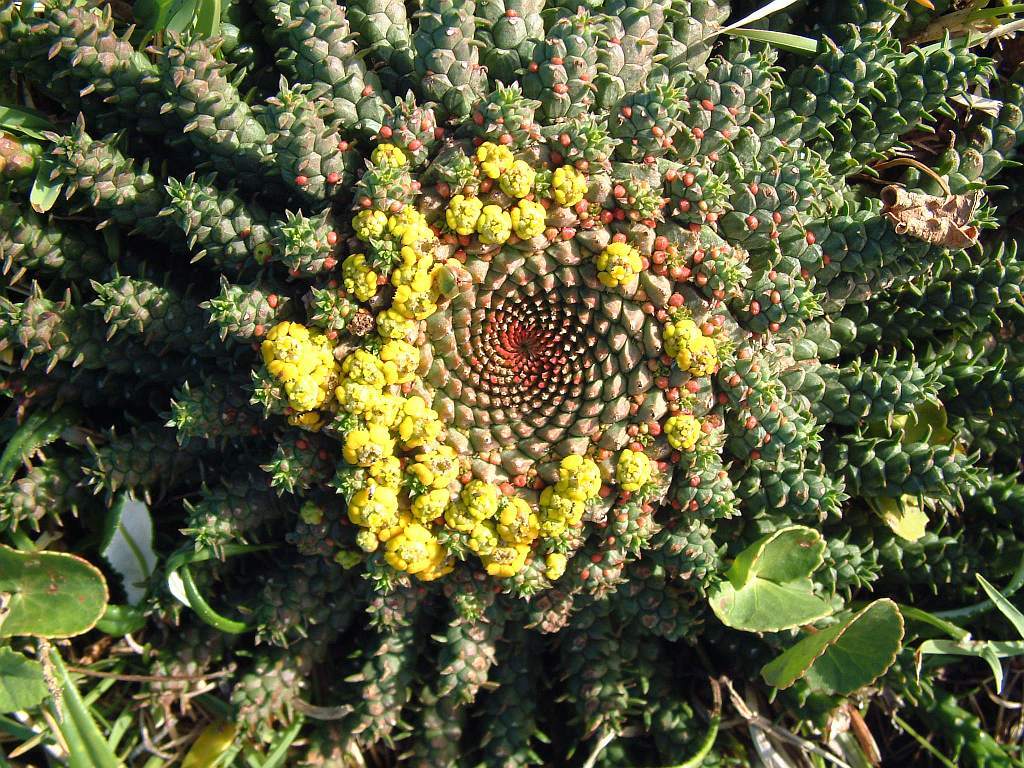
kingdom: Plantae
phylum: Tracheophyta
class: Magnoliopsida
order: Malpighiales
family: Euphorbiaceae
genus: Euphorbia
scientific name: Euphorbia flanaganii
